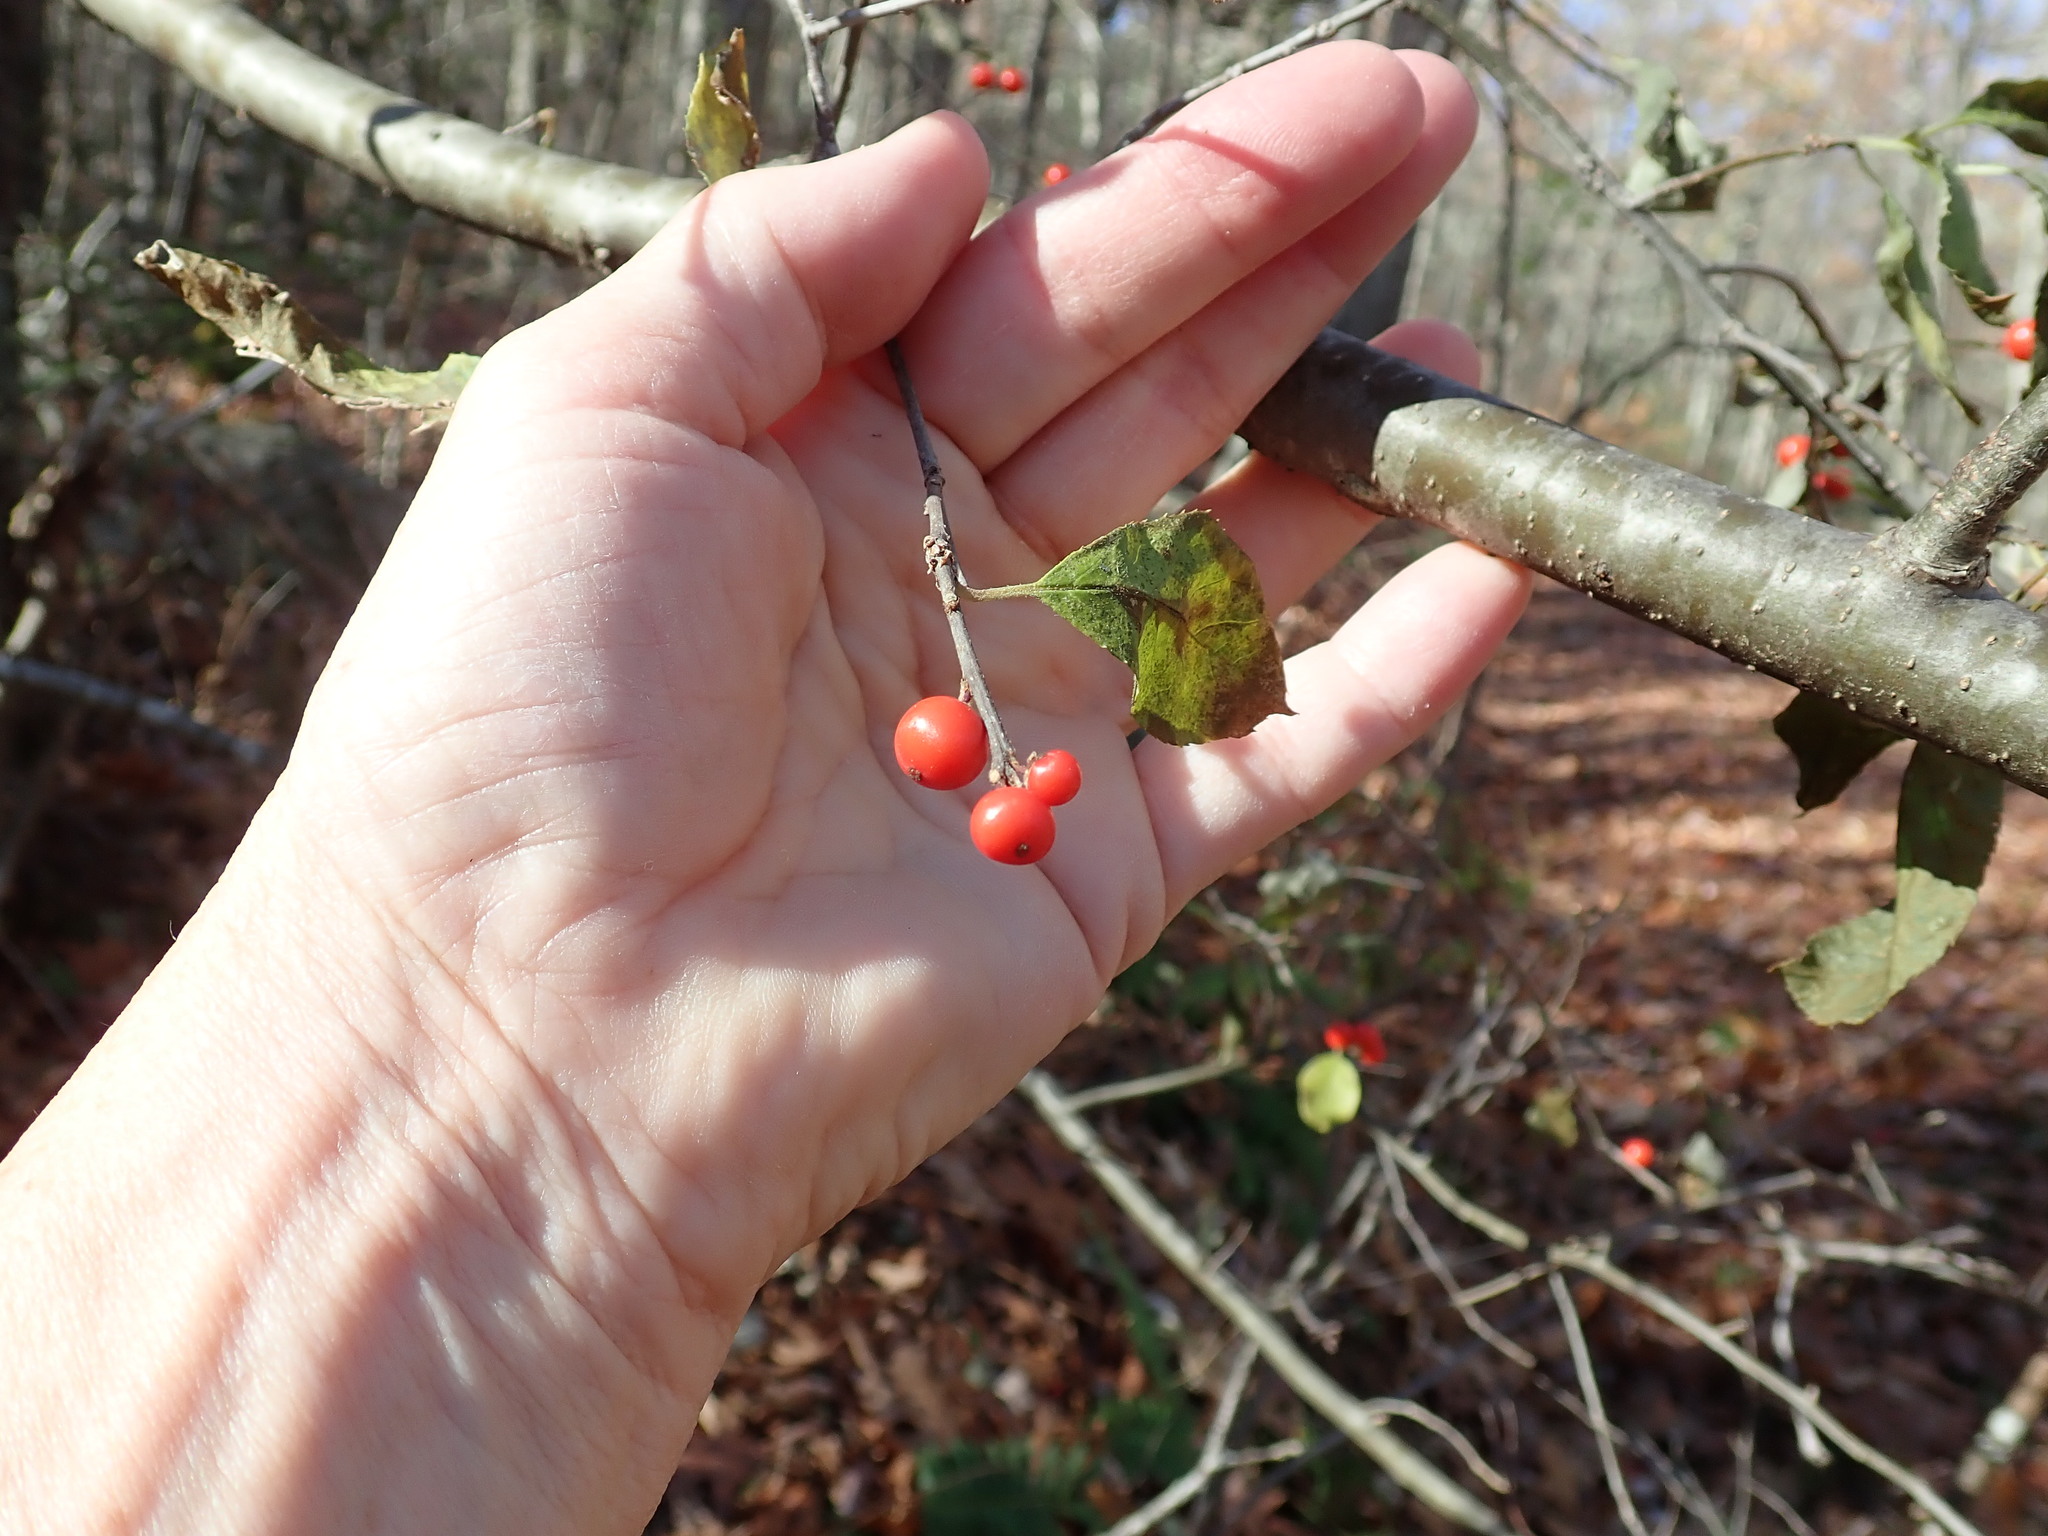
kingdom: Plantae
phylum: Tracheophyta
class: Magnoliopsida
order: Aquifoliales
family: Aquifoliaceae
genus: Ilex
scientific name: Ilex verticillata
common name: Virginia winterberry
